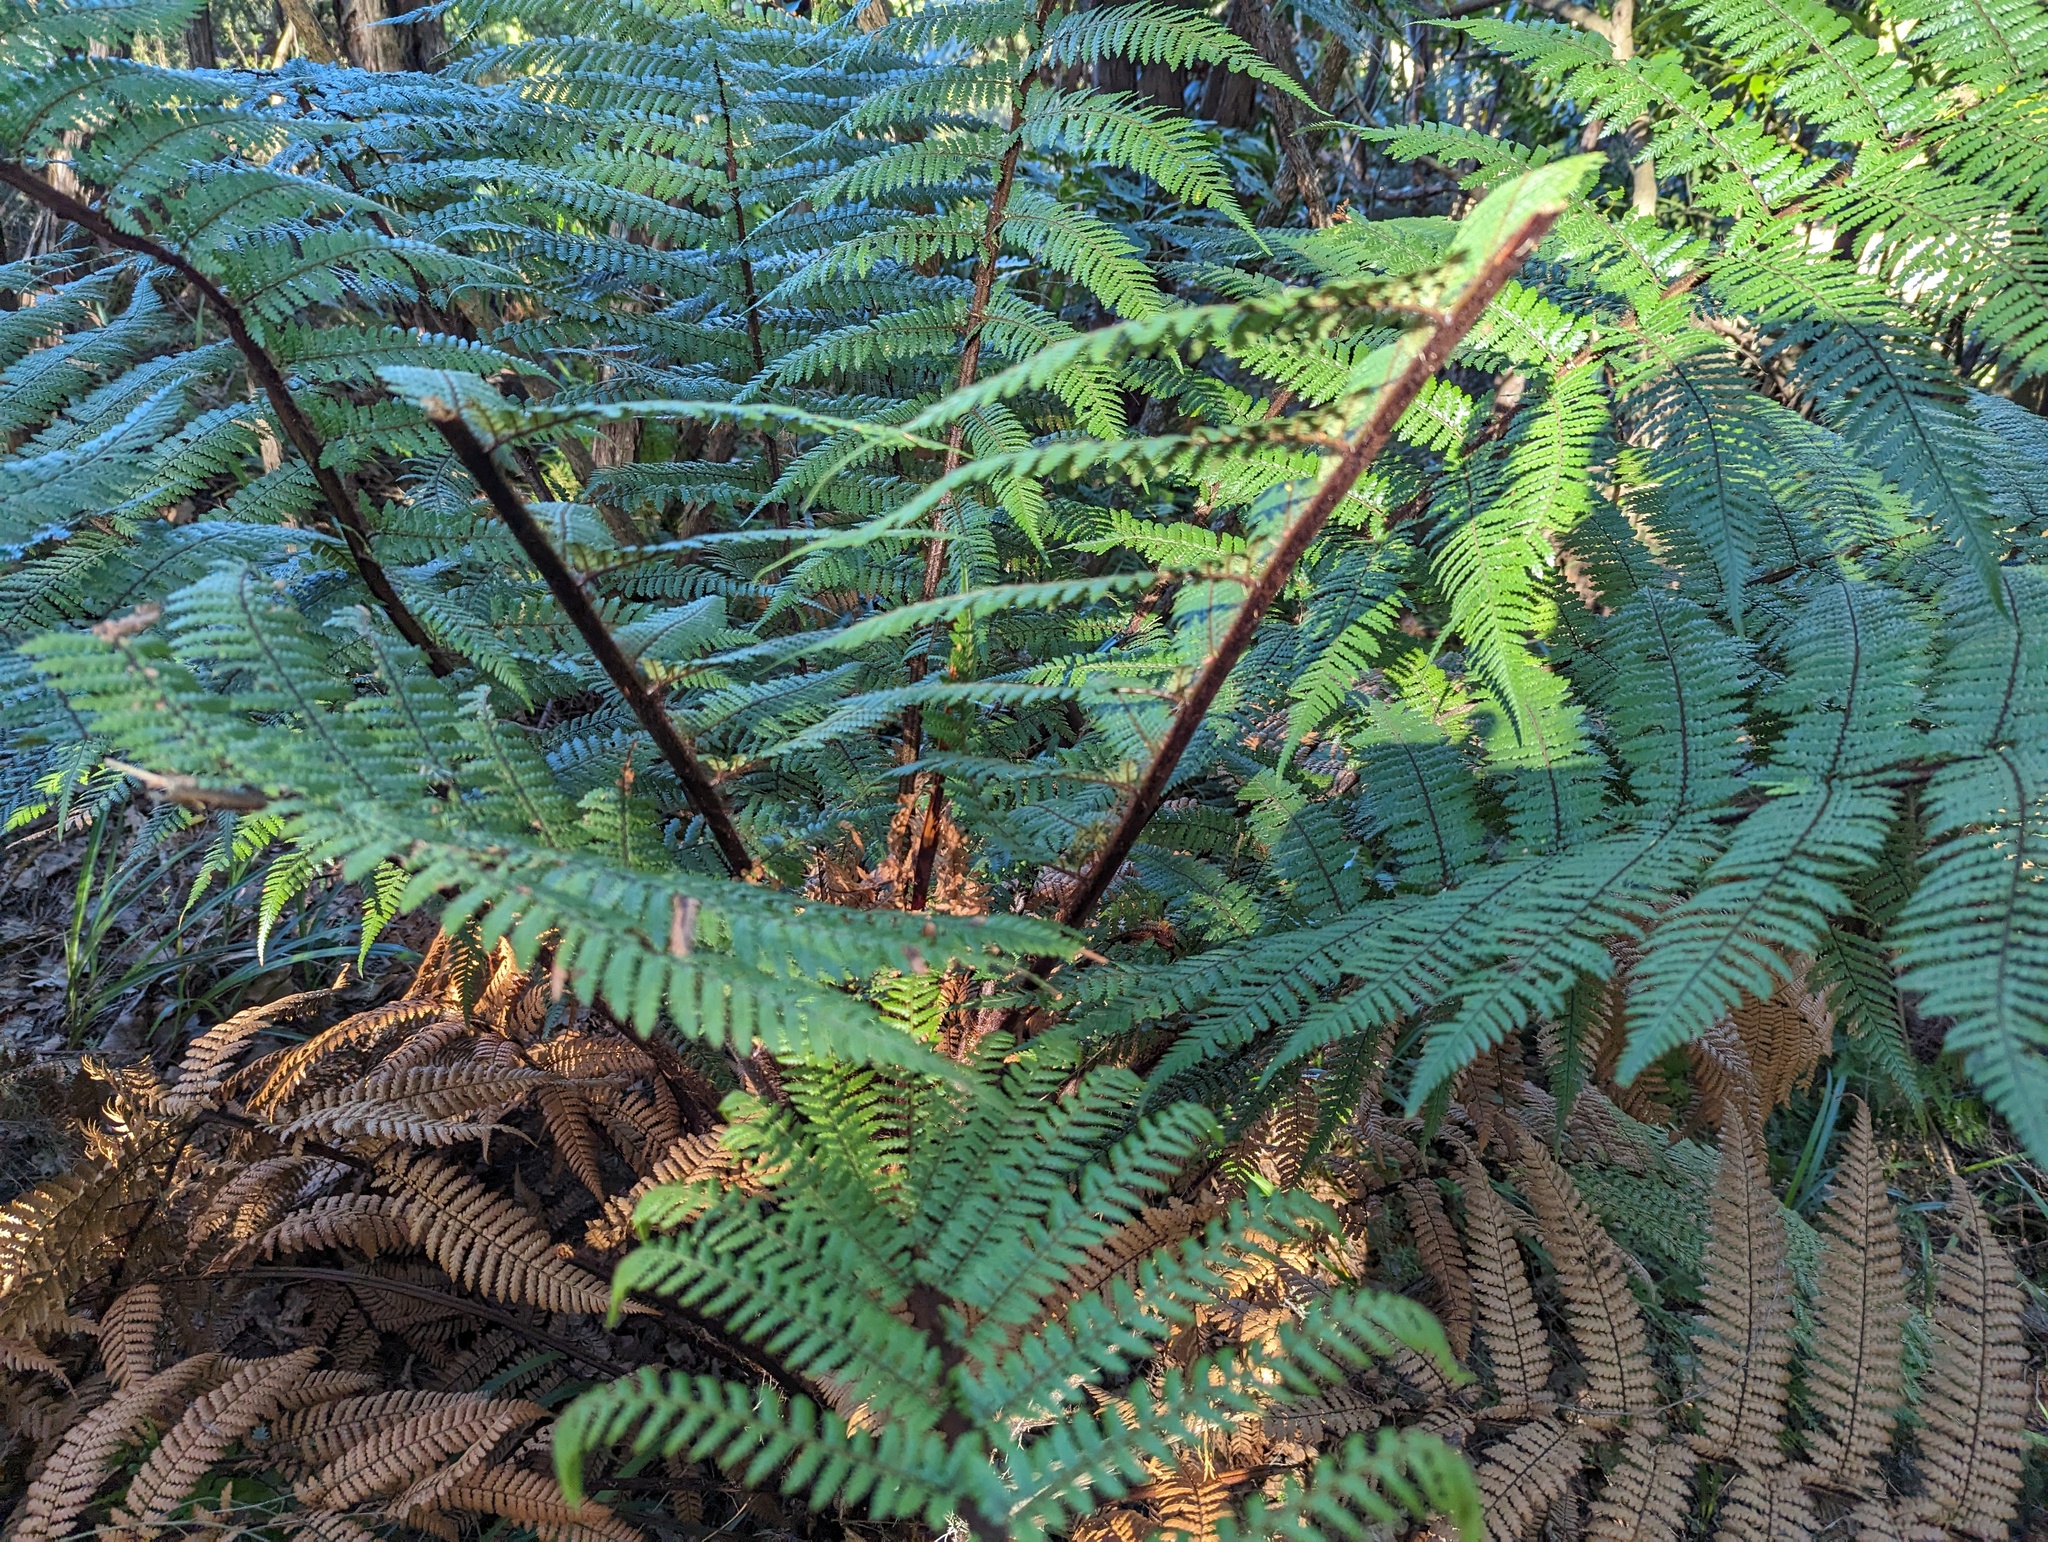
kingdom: Plantae
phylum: Tracheophyta
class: Polypodiopsida
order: Cyatheales
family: Dicksoniaceae
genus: Dicksonia
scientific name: Dicksonia squarrosa
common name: Hard treefern
